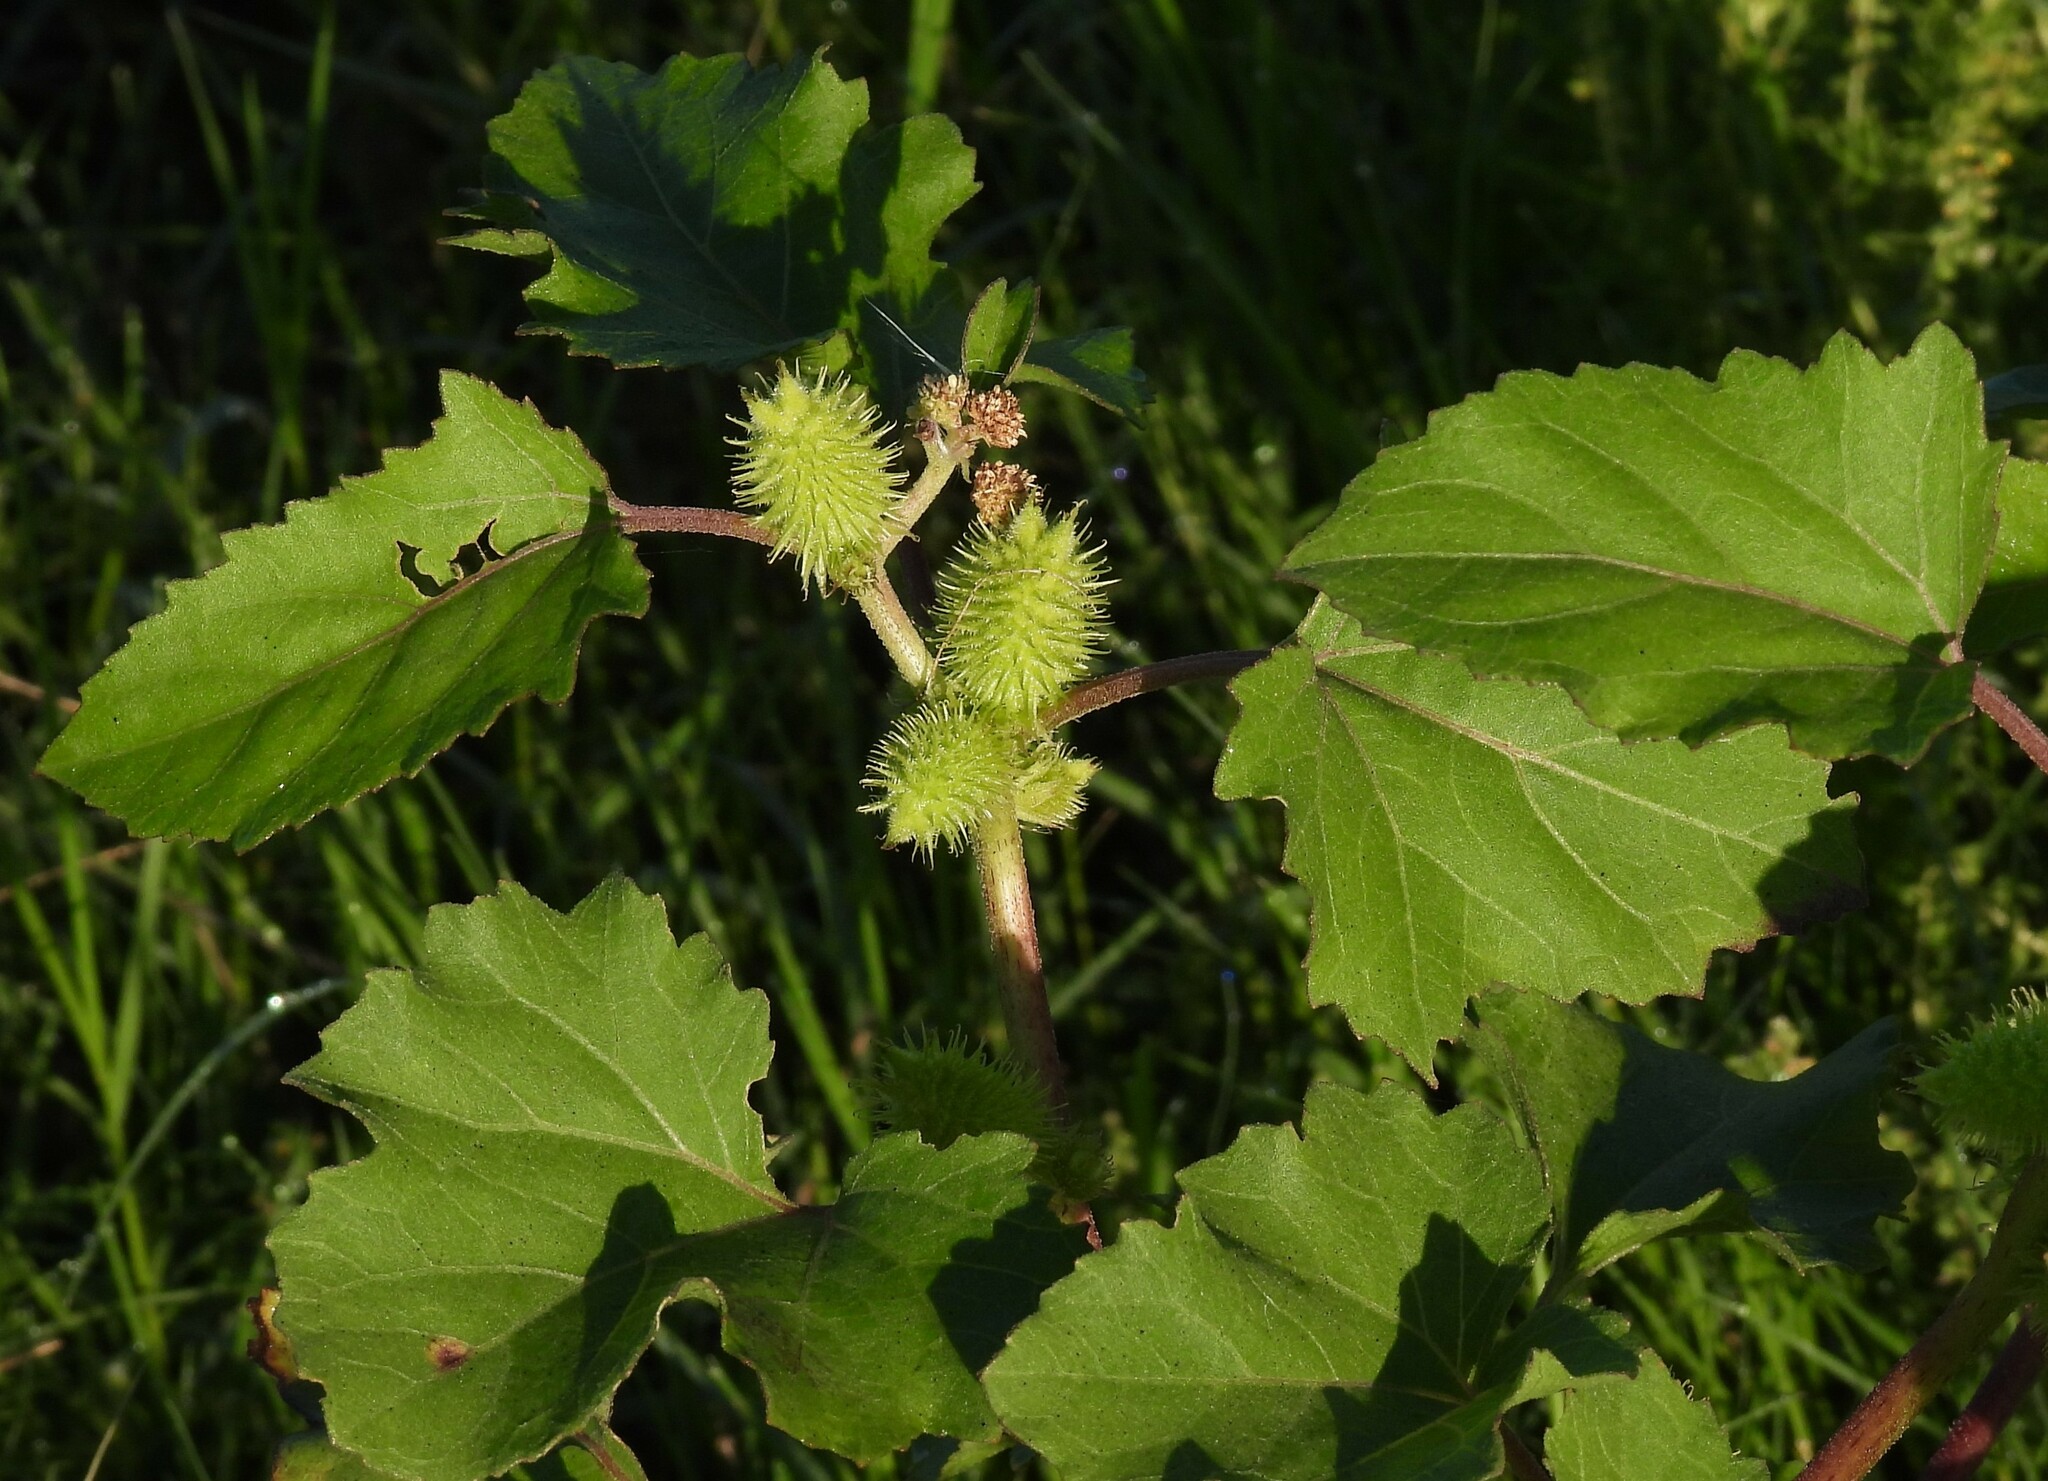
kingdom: Plantae
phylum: Tracheophyta
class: Magnoliopsida
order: Asterales
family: Asteraceae
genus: Xanthium
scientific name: Xanthium strumarium
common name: Rough cocklebur
